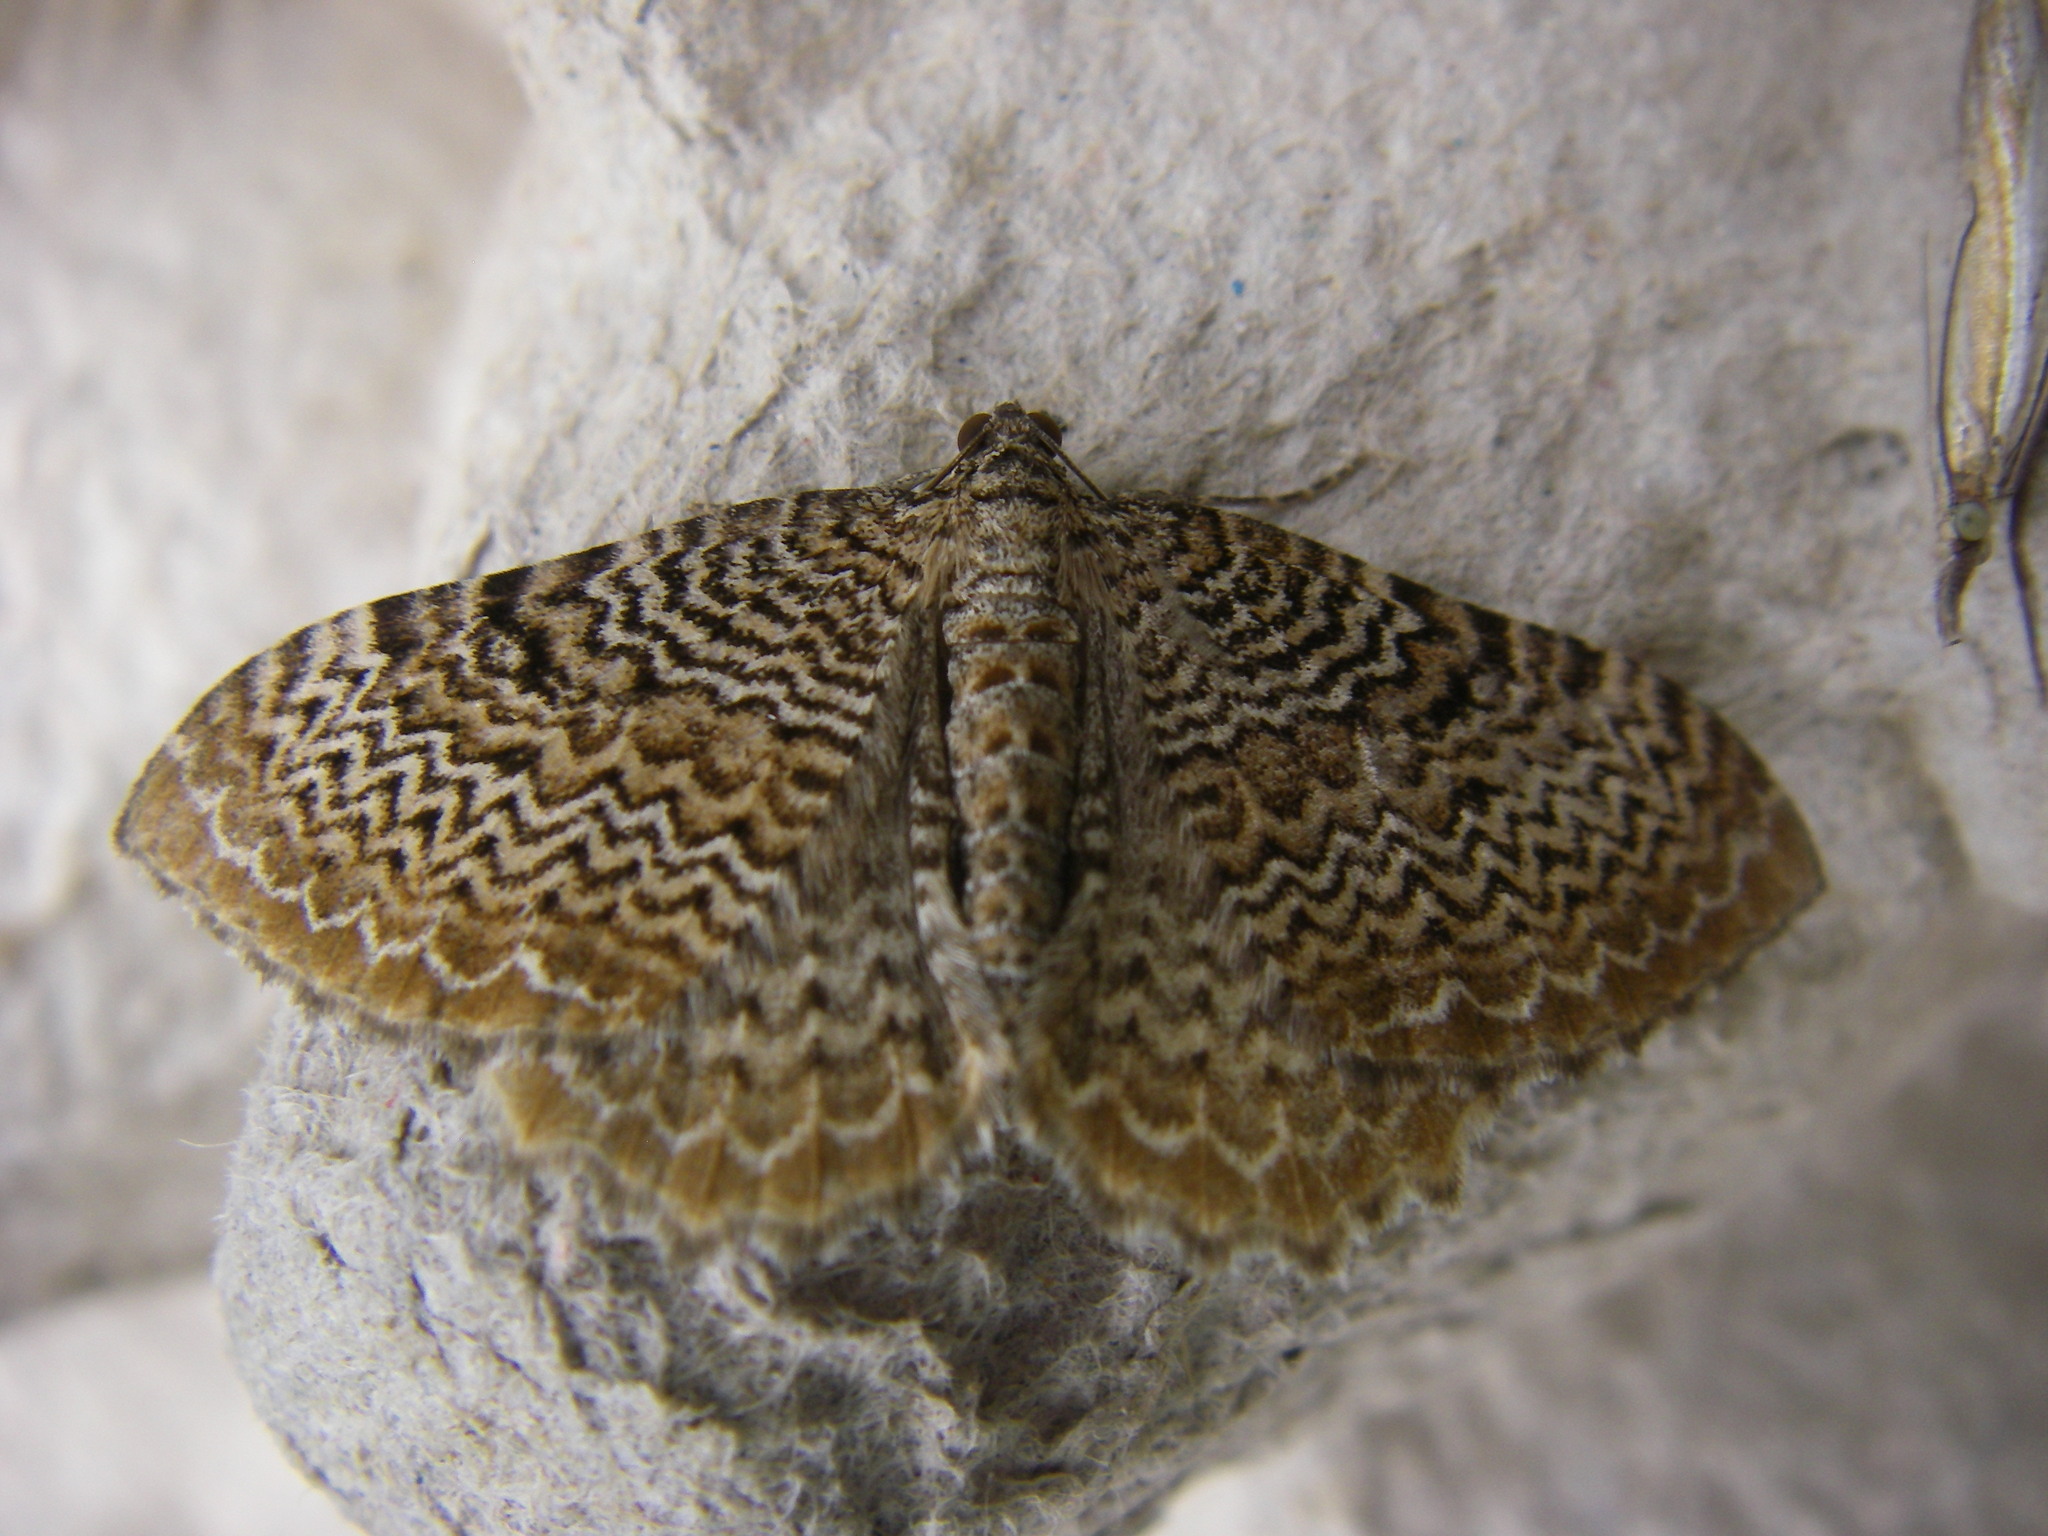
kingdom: Animalia
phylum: Arthropoda
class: Insecta
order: Lepidoptera
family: Geometridae
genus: Rheumaptera
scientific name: Rheumaptera undulata
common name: Scallop shell
